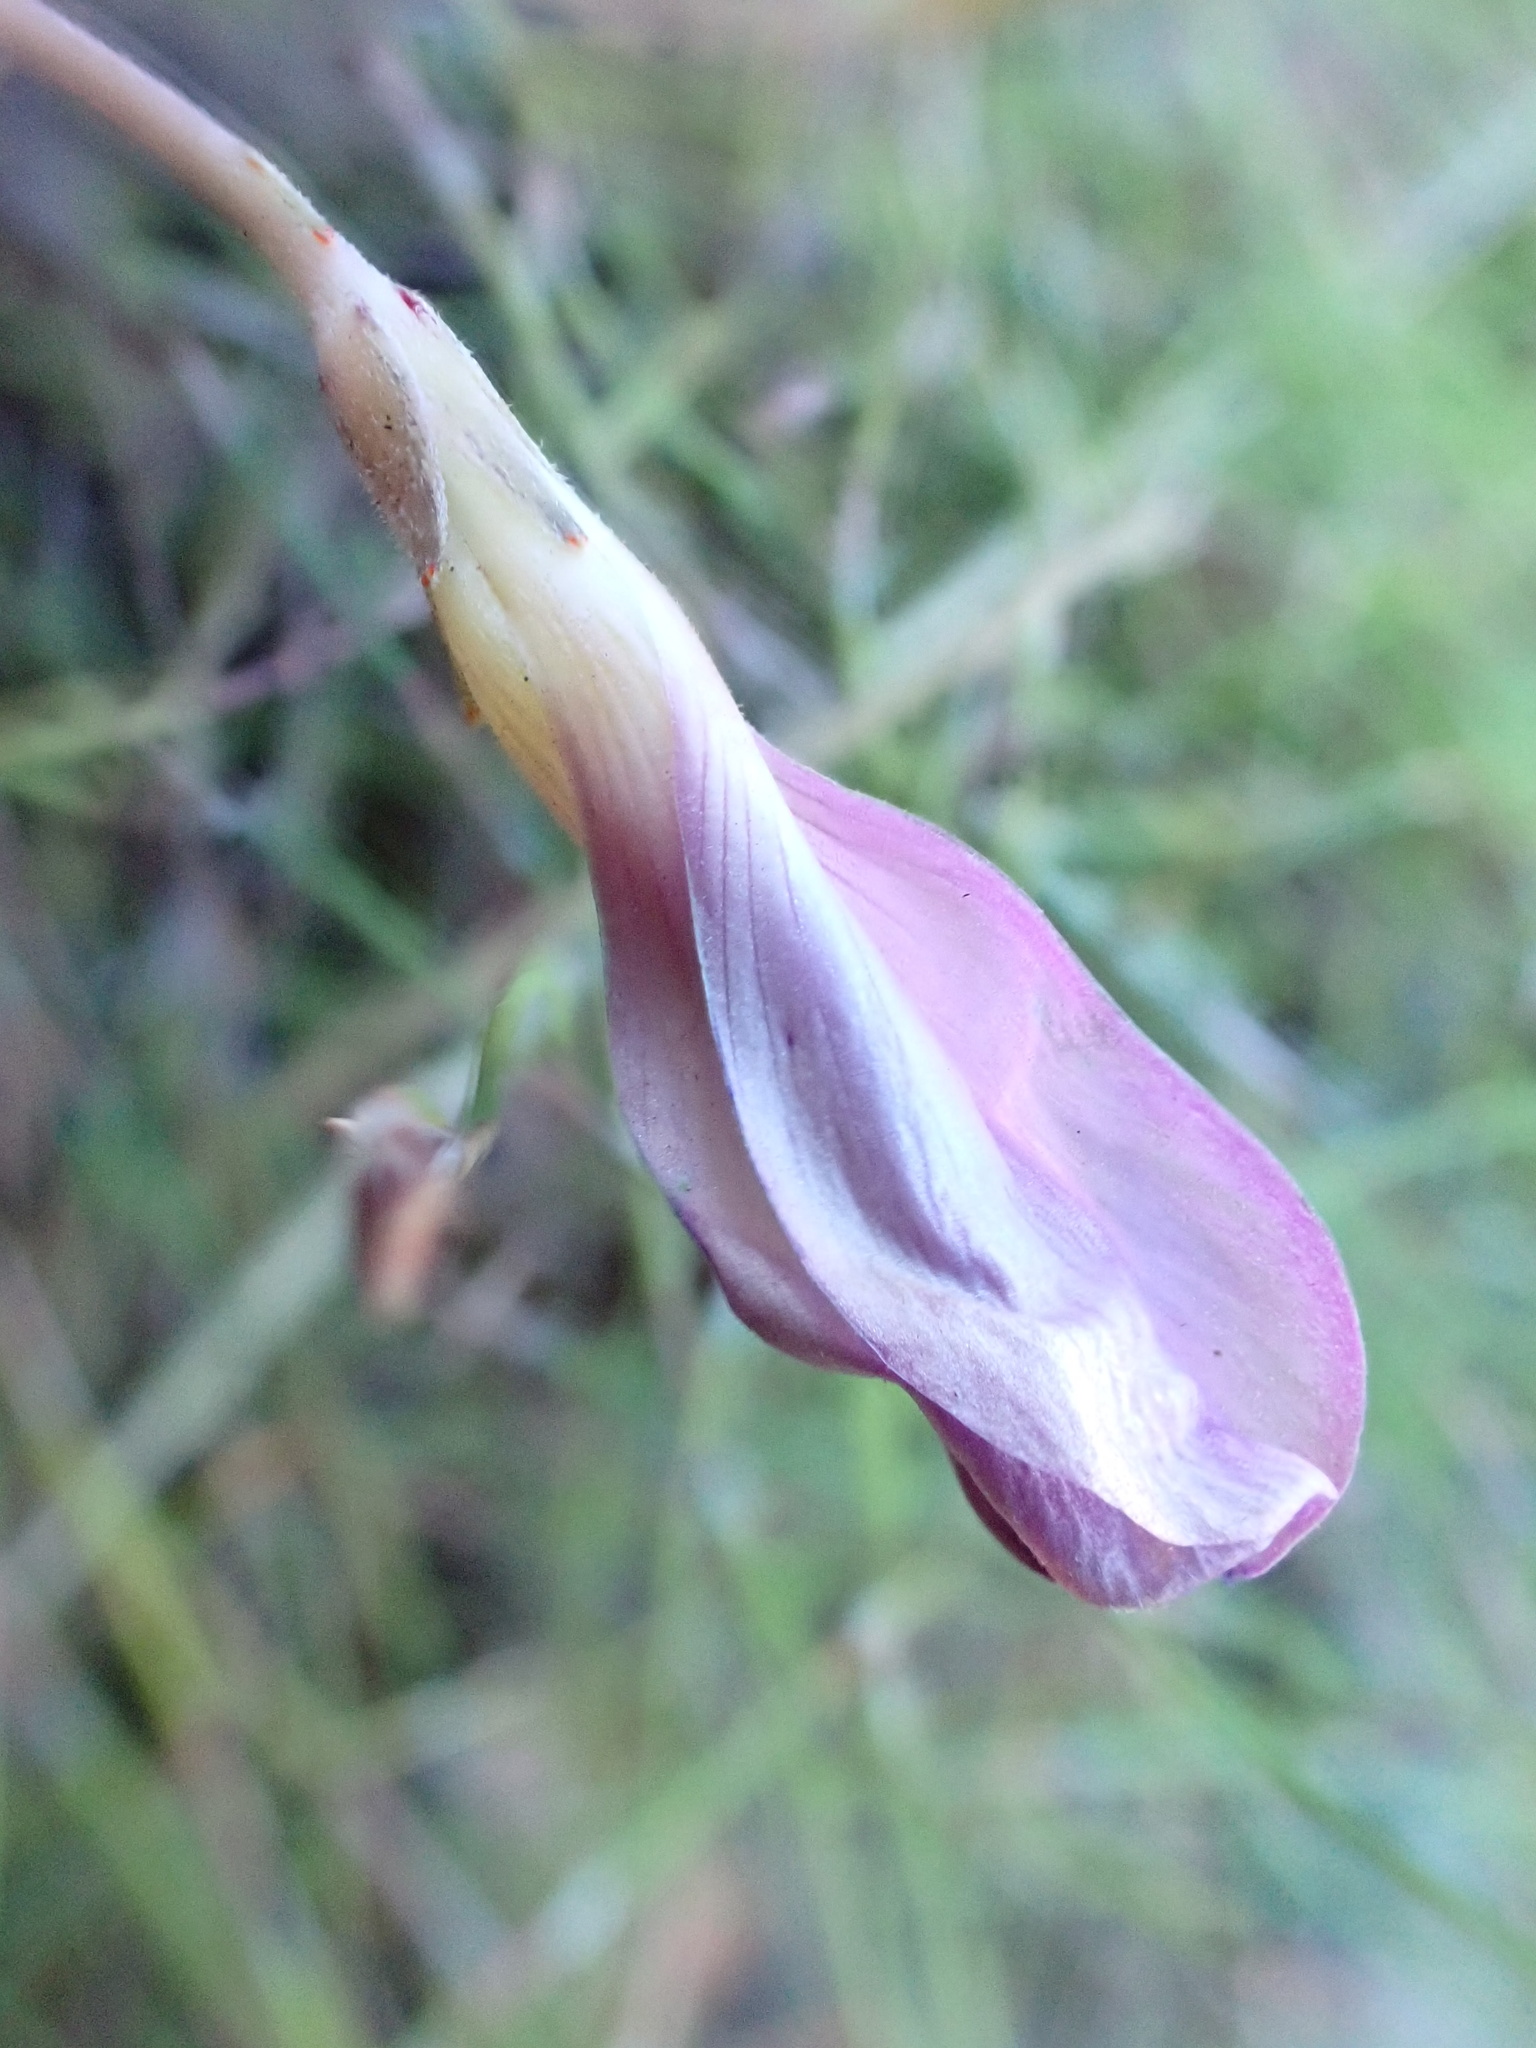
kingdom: Plantae
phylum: Tracheophyta
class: Magnoliopsida
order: Oxalidales
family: Oxalidaceae
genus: Oxalis
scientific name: Oxalis polyphylla
